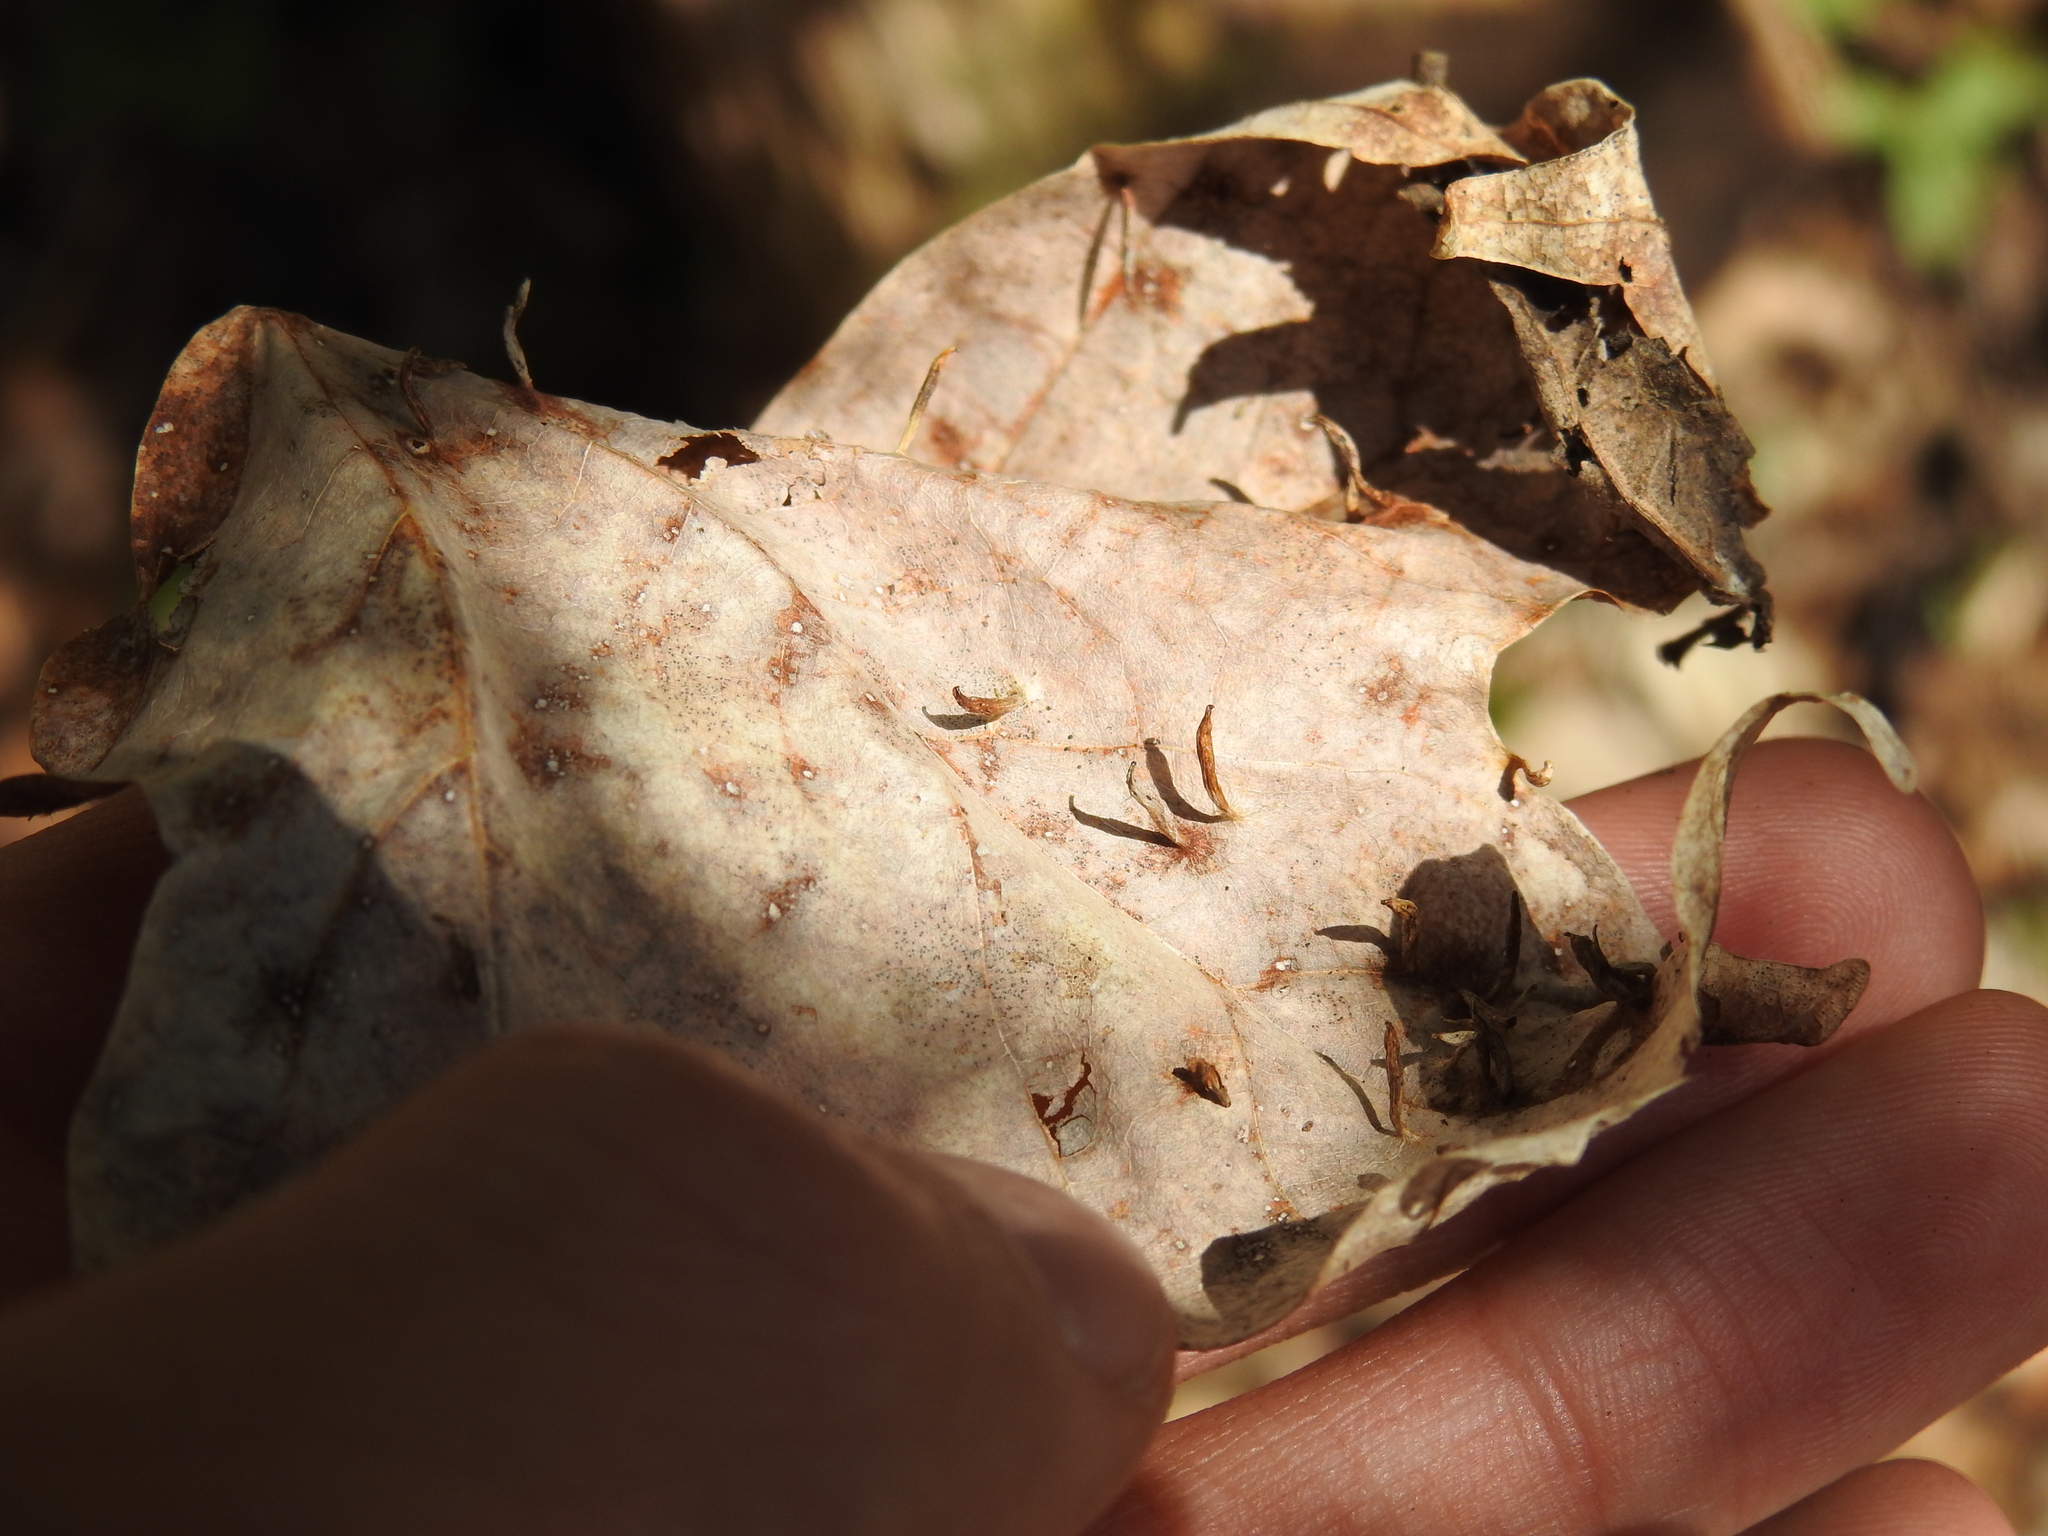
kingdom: Animalia
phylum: Arthropoda
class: Arachnida
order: Trombidiformes
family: Eriophyidae
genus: Vasates
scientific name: Vasates aceriscrumena
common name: Maple spindle gall mite
